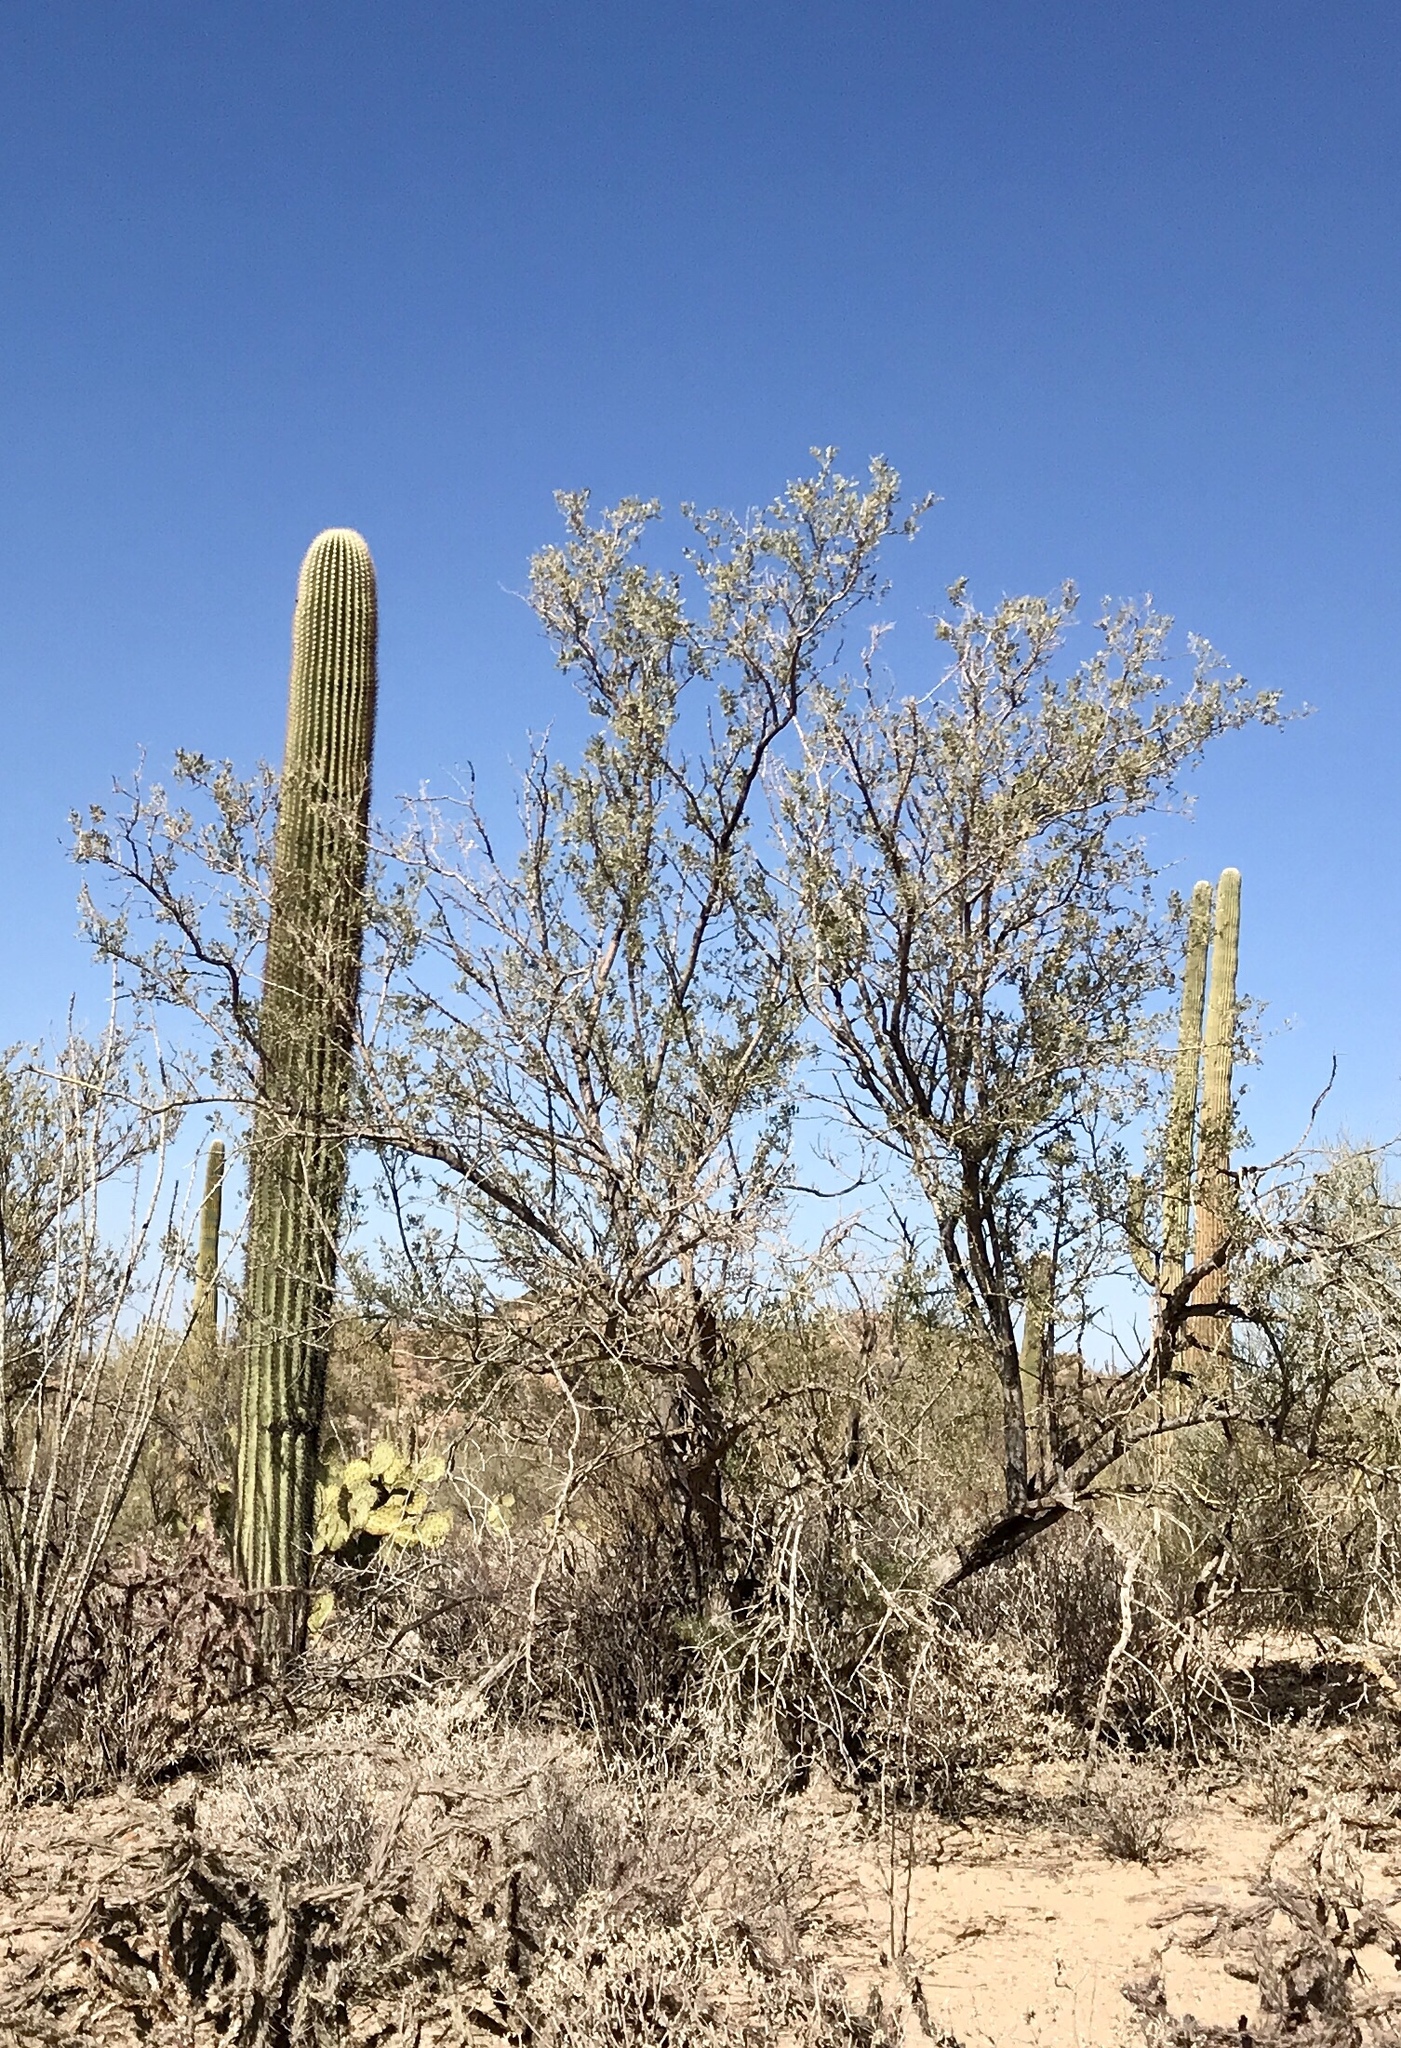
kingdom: Plantae
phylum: Tracheophyta
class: Magnoliopsida
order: Fabales
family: Fabaceae
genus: Olneya
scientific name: Olneya tesota
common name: Desert ironwood
